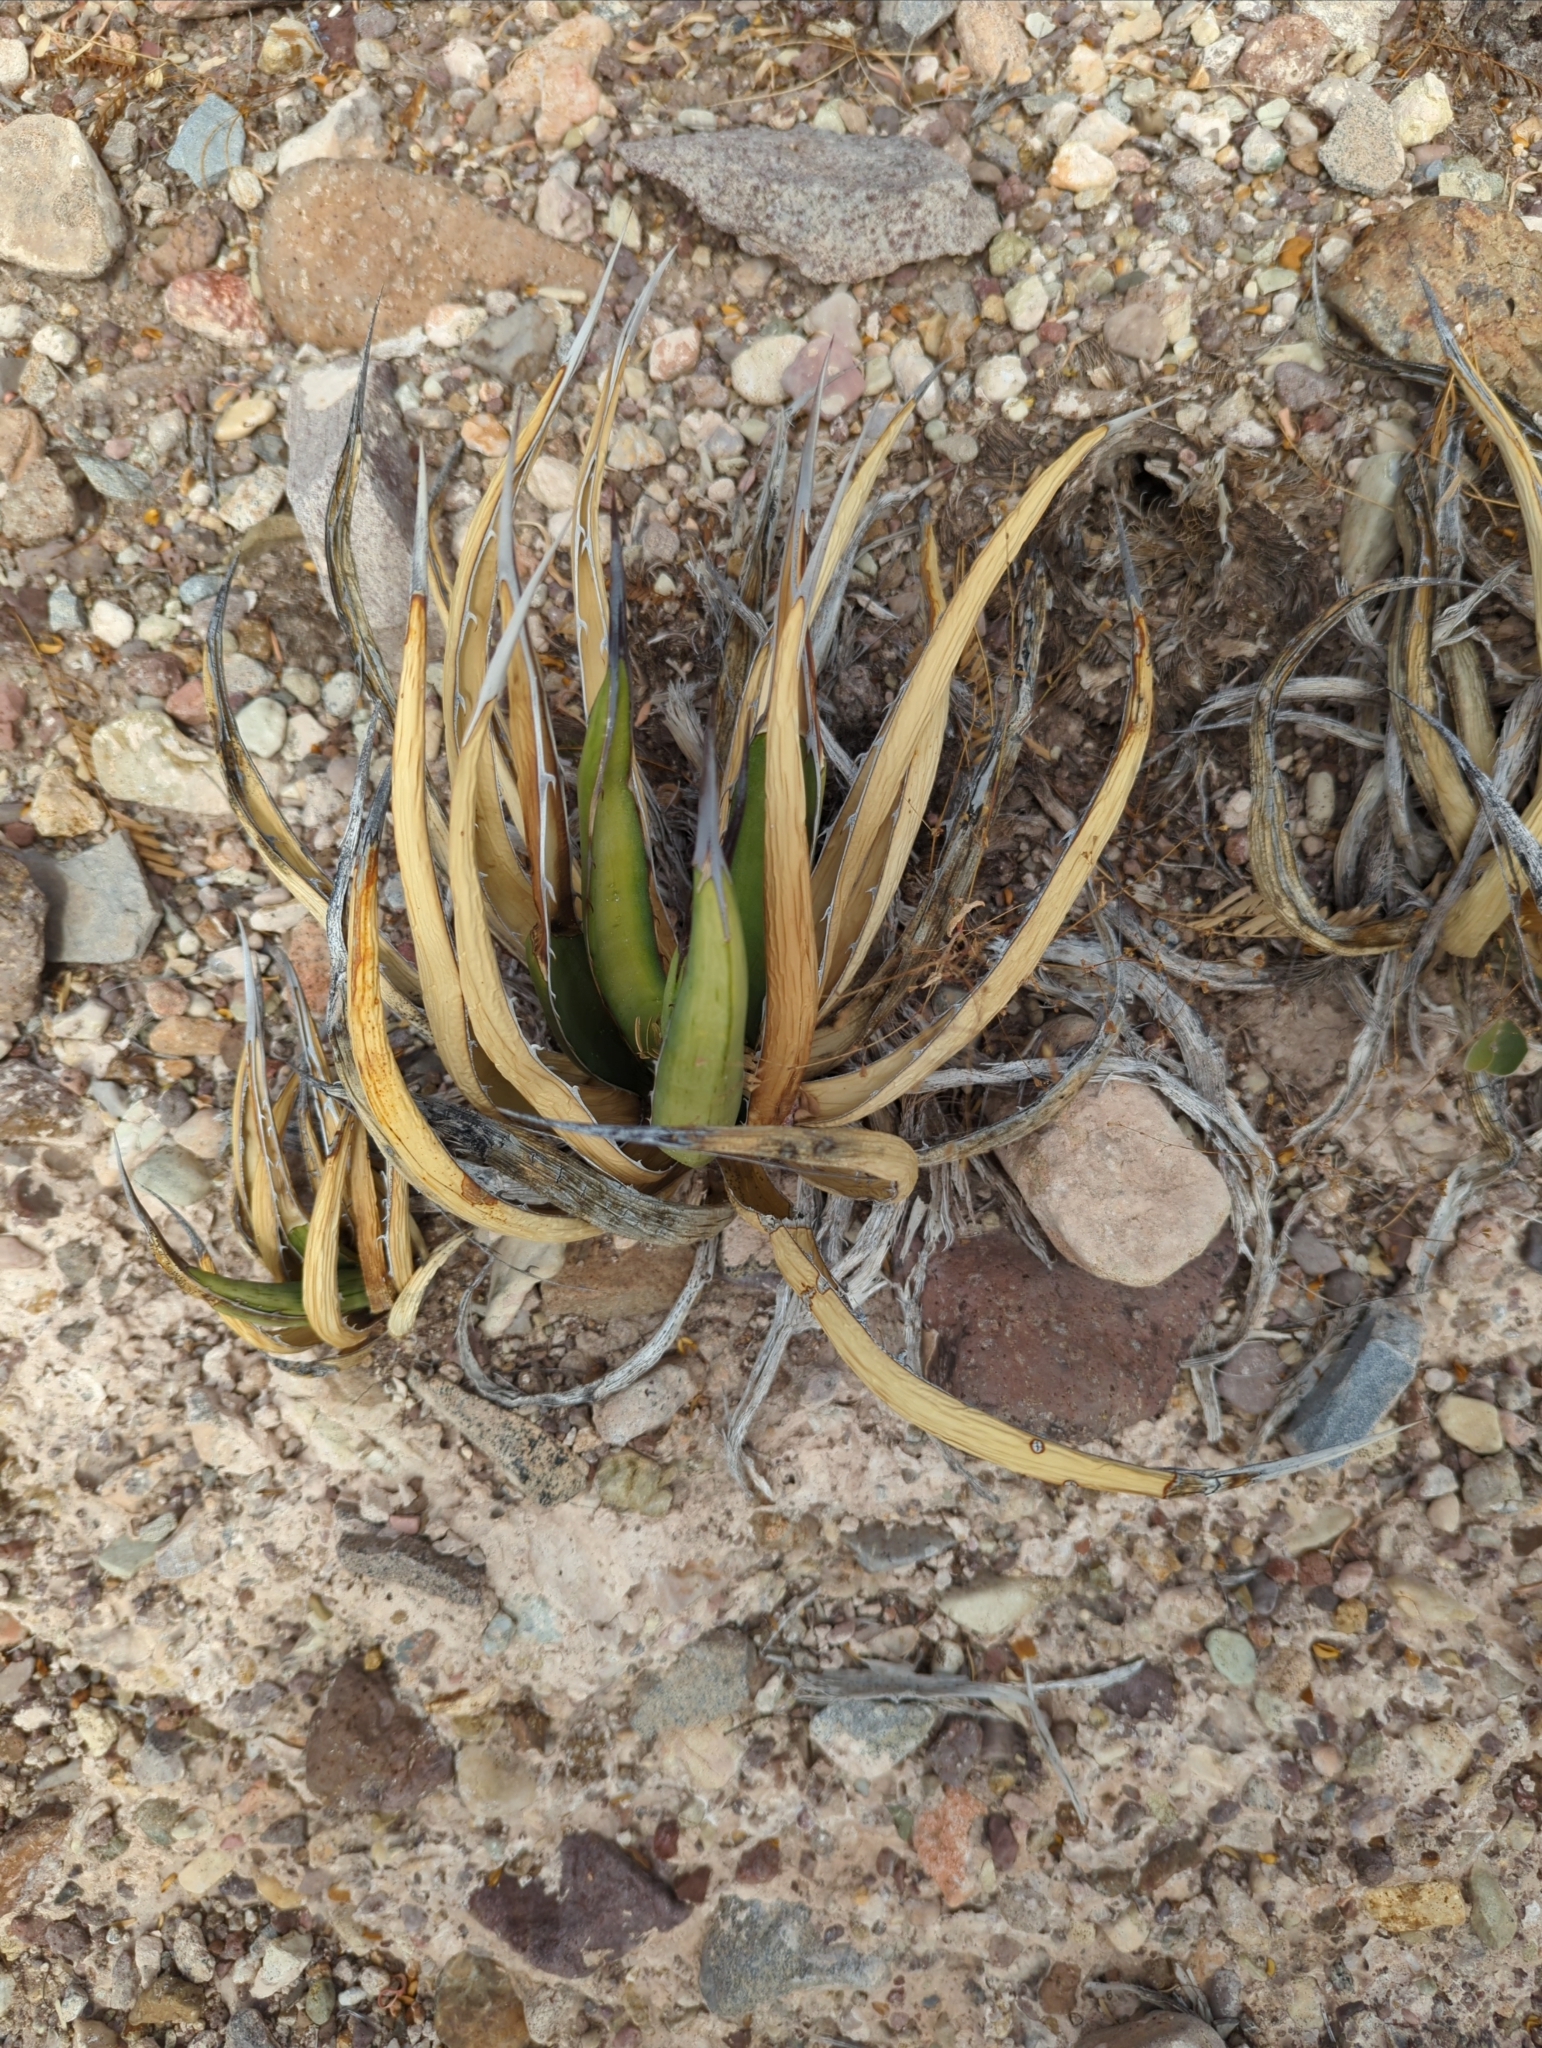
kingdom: Plantae
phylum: Tracheophyta
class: Liliopsida
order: Asparagales
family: Asparagaceae
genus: Agave
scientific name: Agave lechuguilla
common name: Lecheguilla agave
